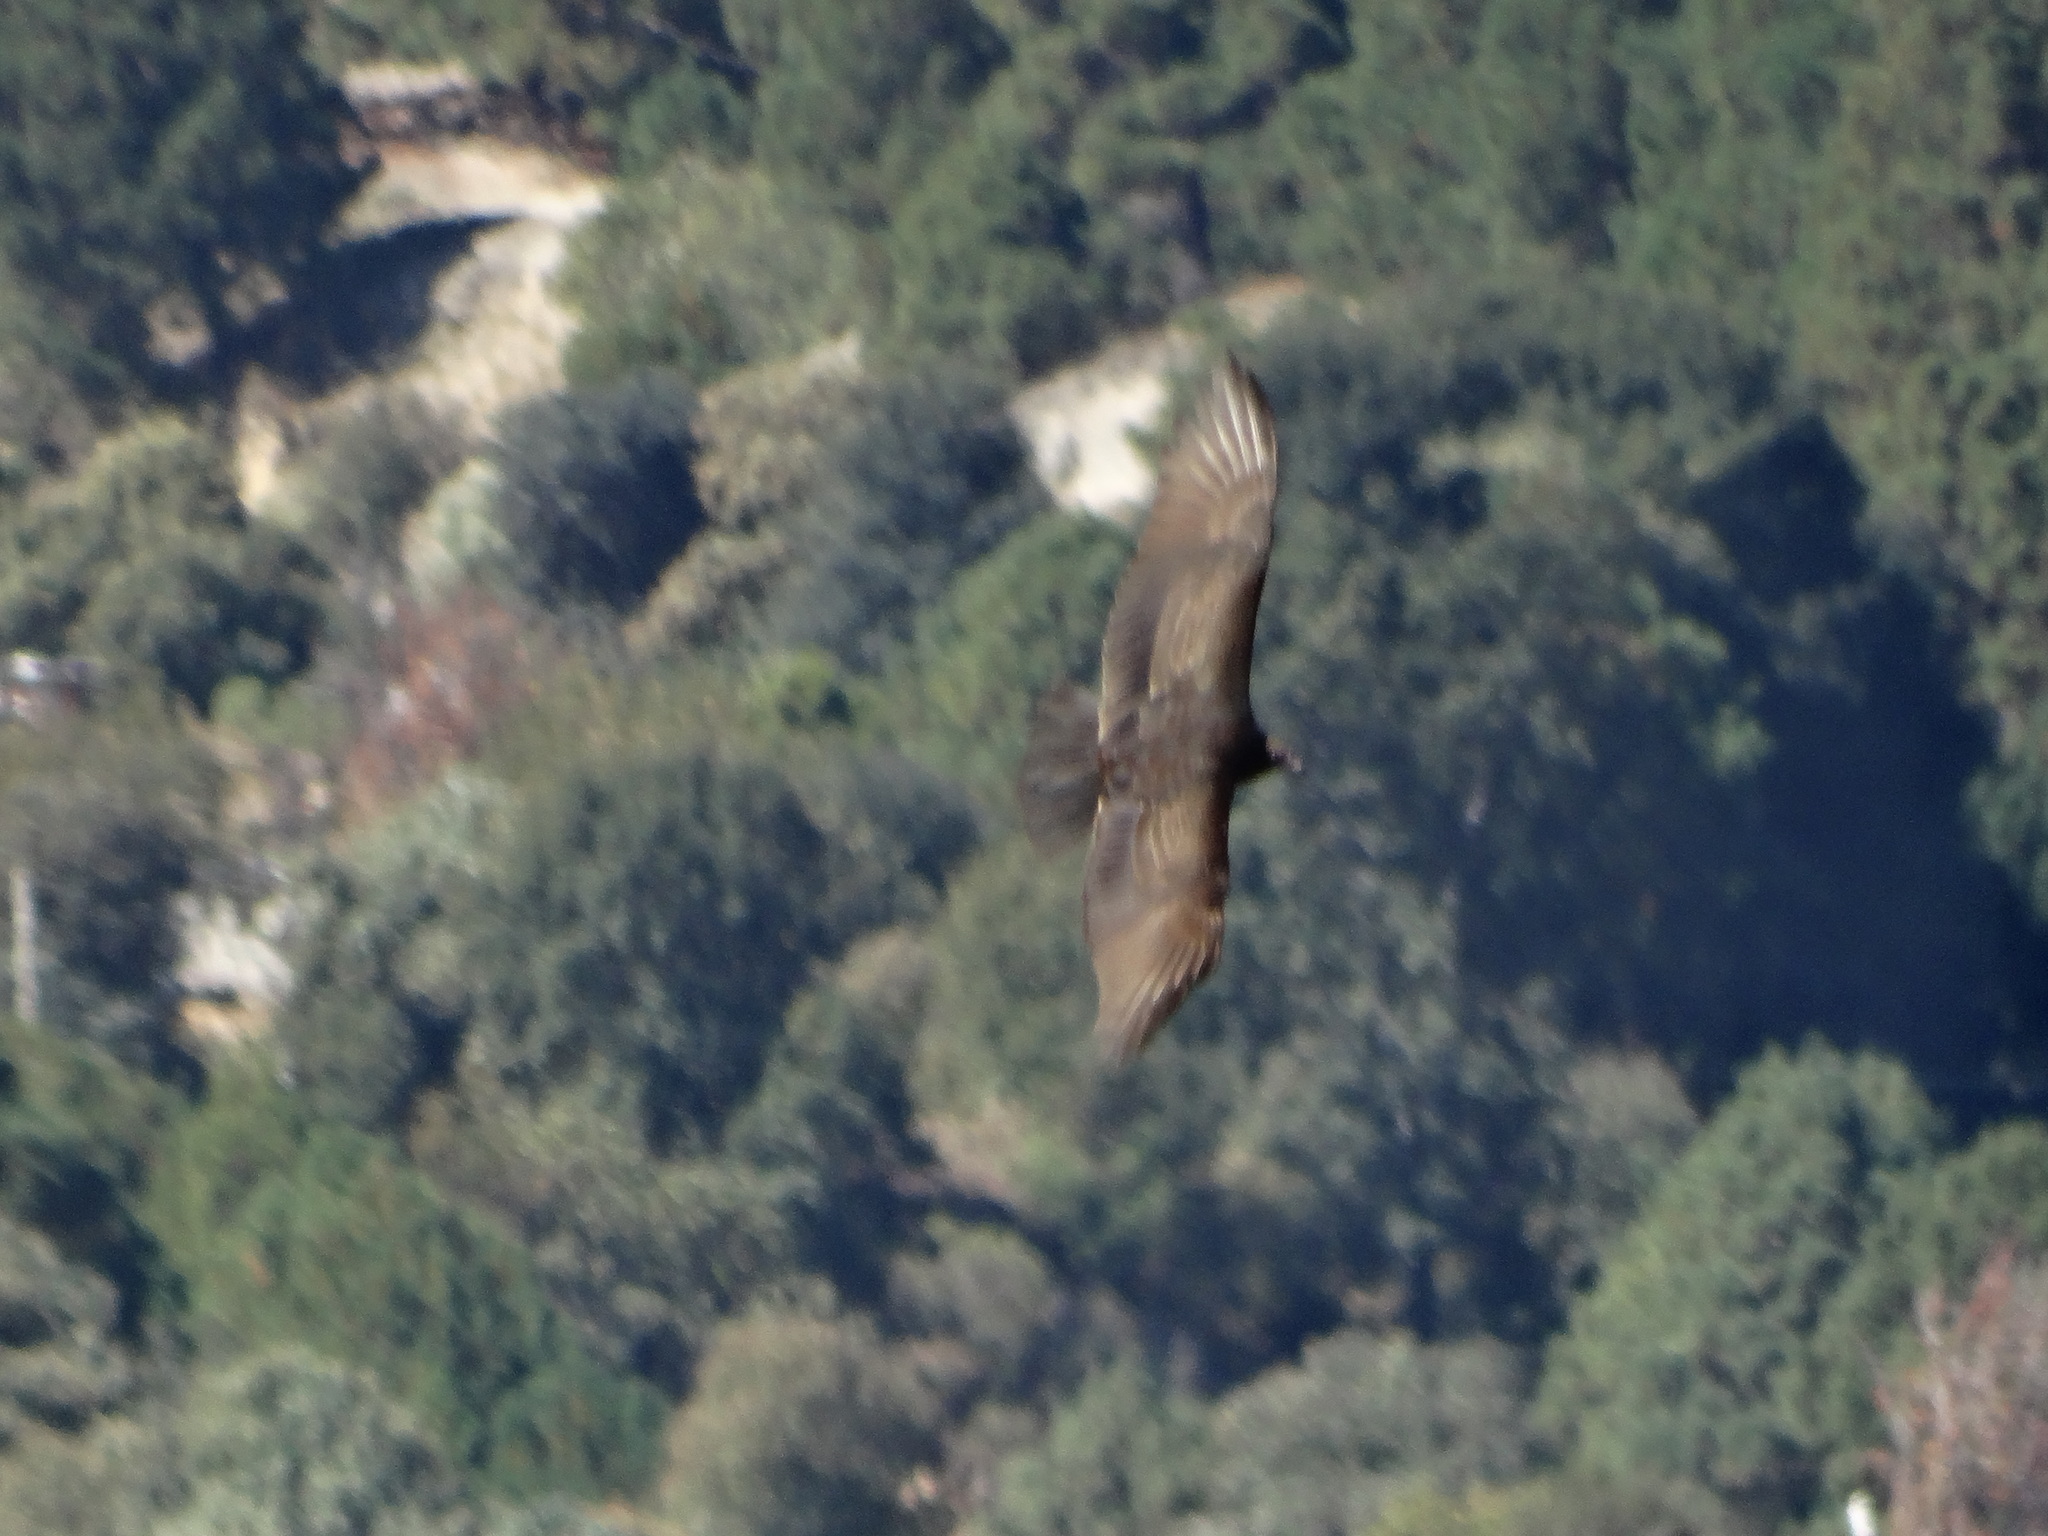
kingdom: Animalia
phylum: Chordata
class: Aves
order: Accipitriformes
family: Cathartidae
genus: Coragyps
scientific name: Coragyps atratus
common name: Black vulture
